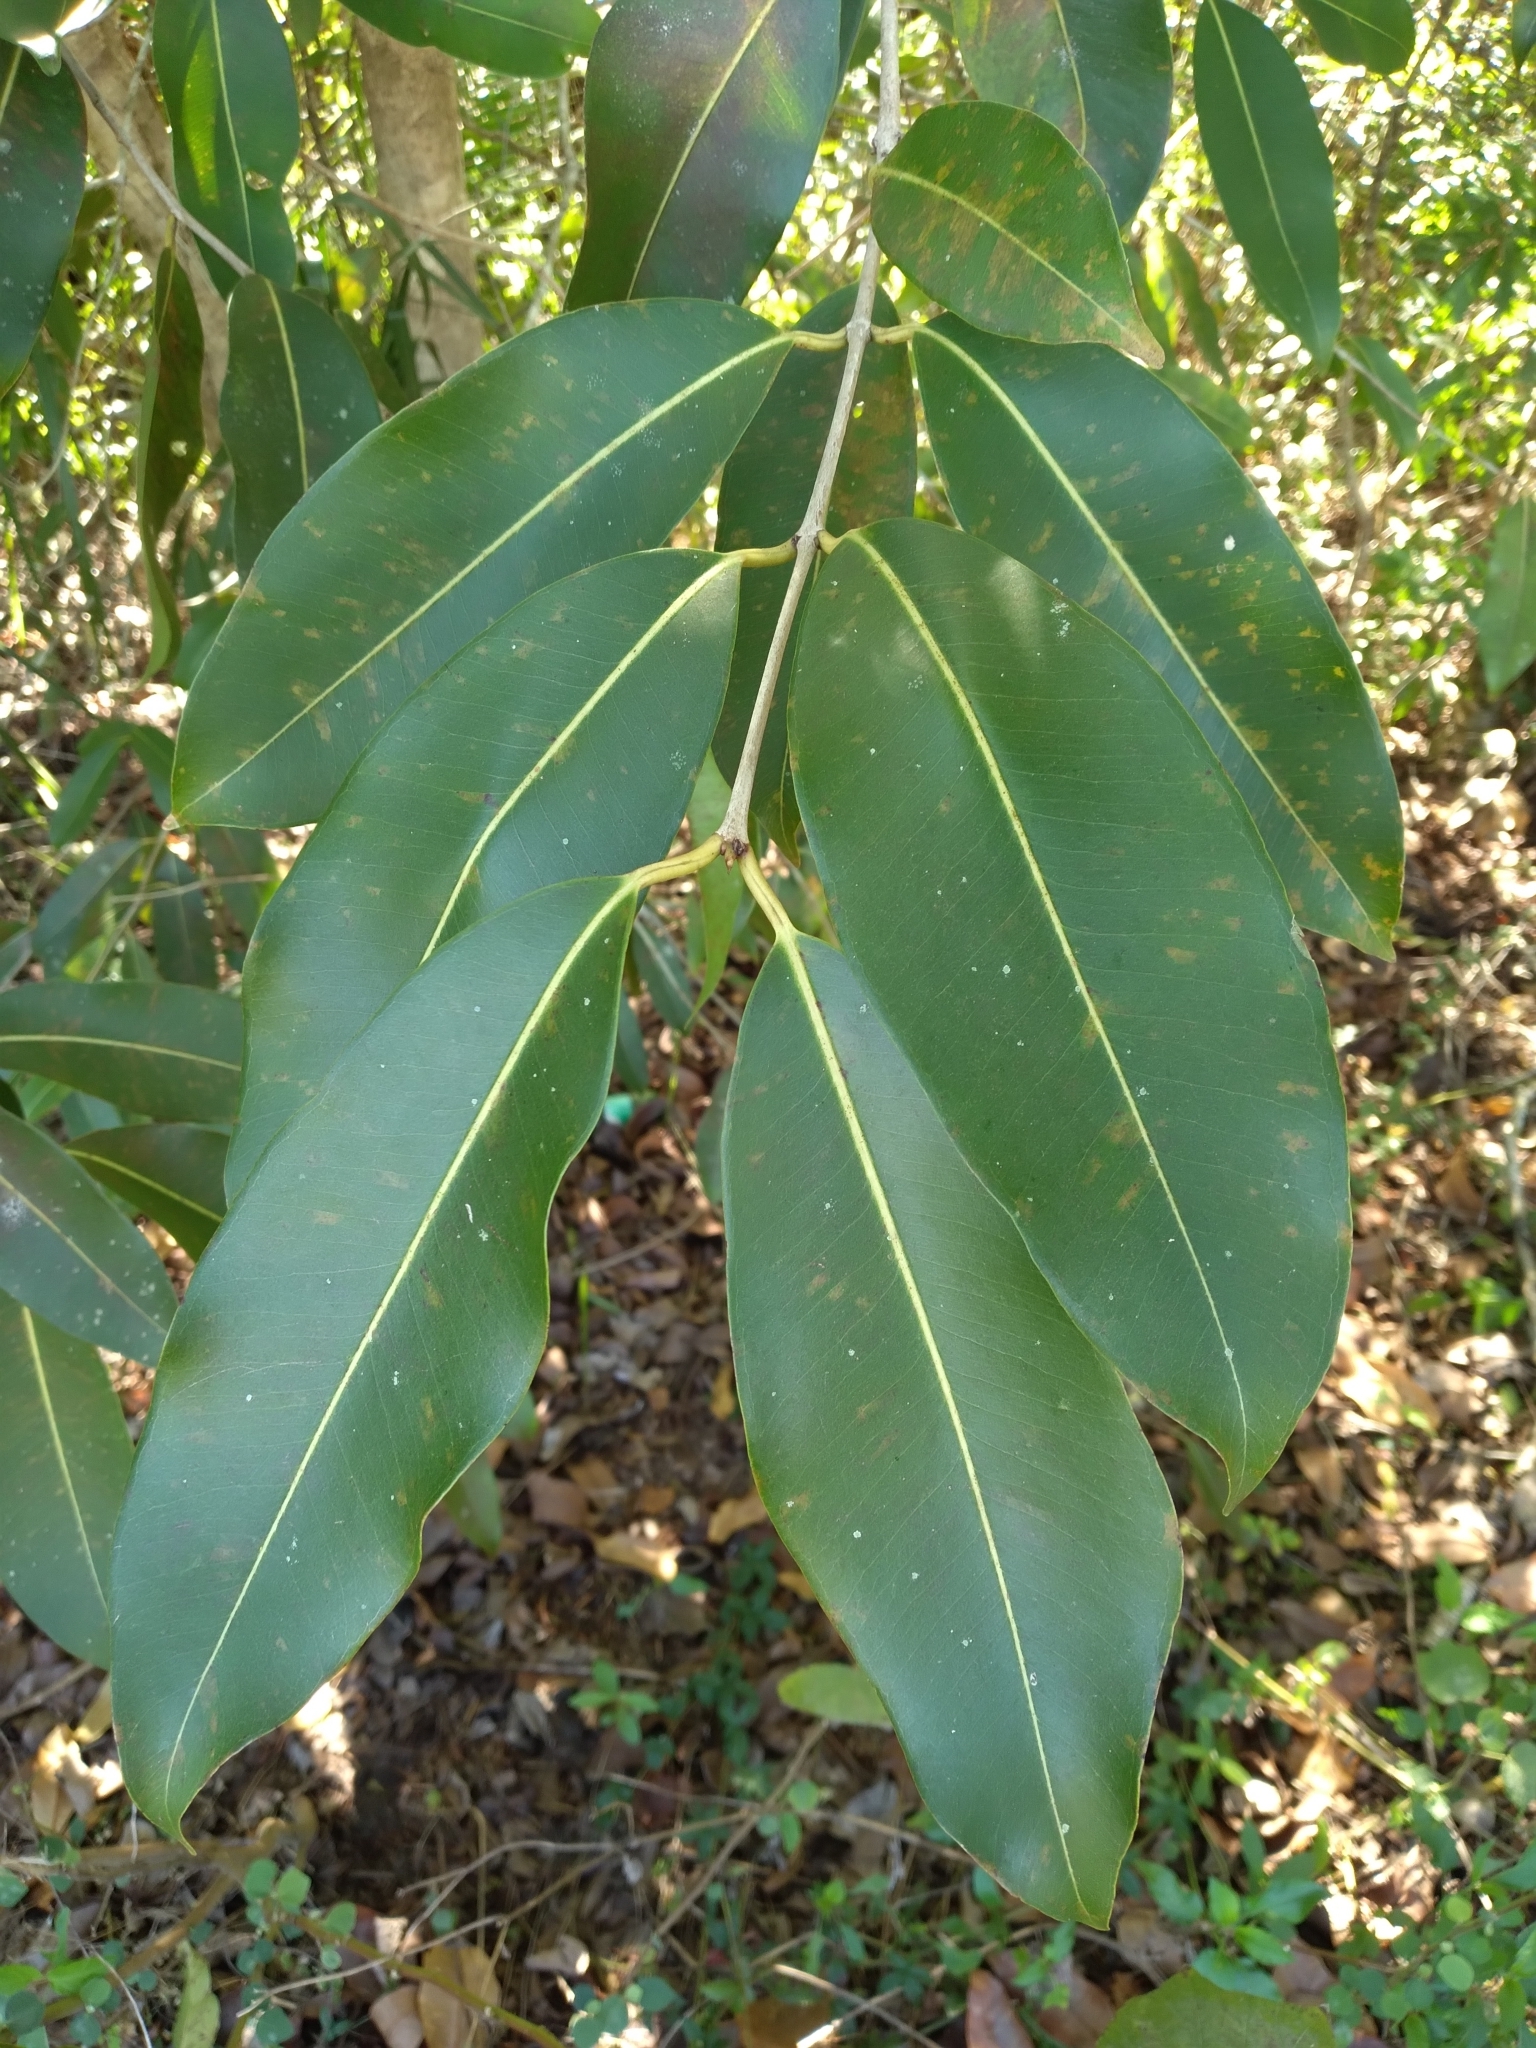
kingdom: Plantae
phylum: Tracheophyta
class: Magnoliopsida
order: Myrtales
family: Myrtaceae
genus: Syzygium
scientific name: Syzygium cumini
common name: Java plum
